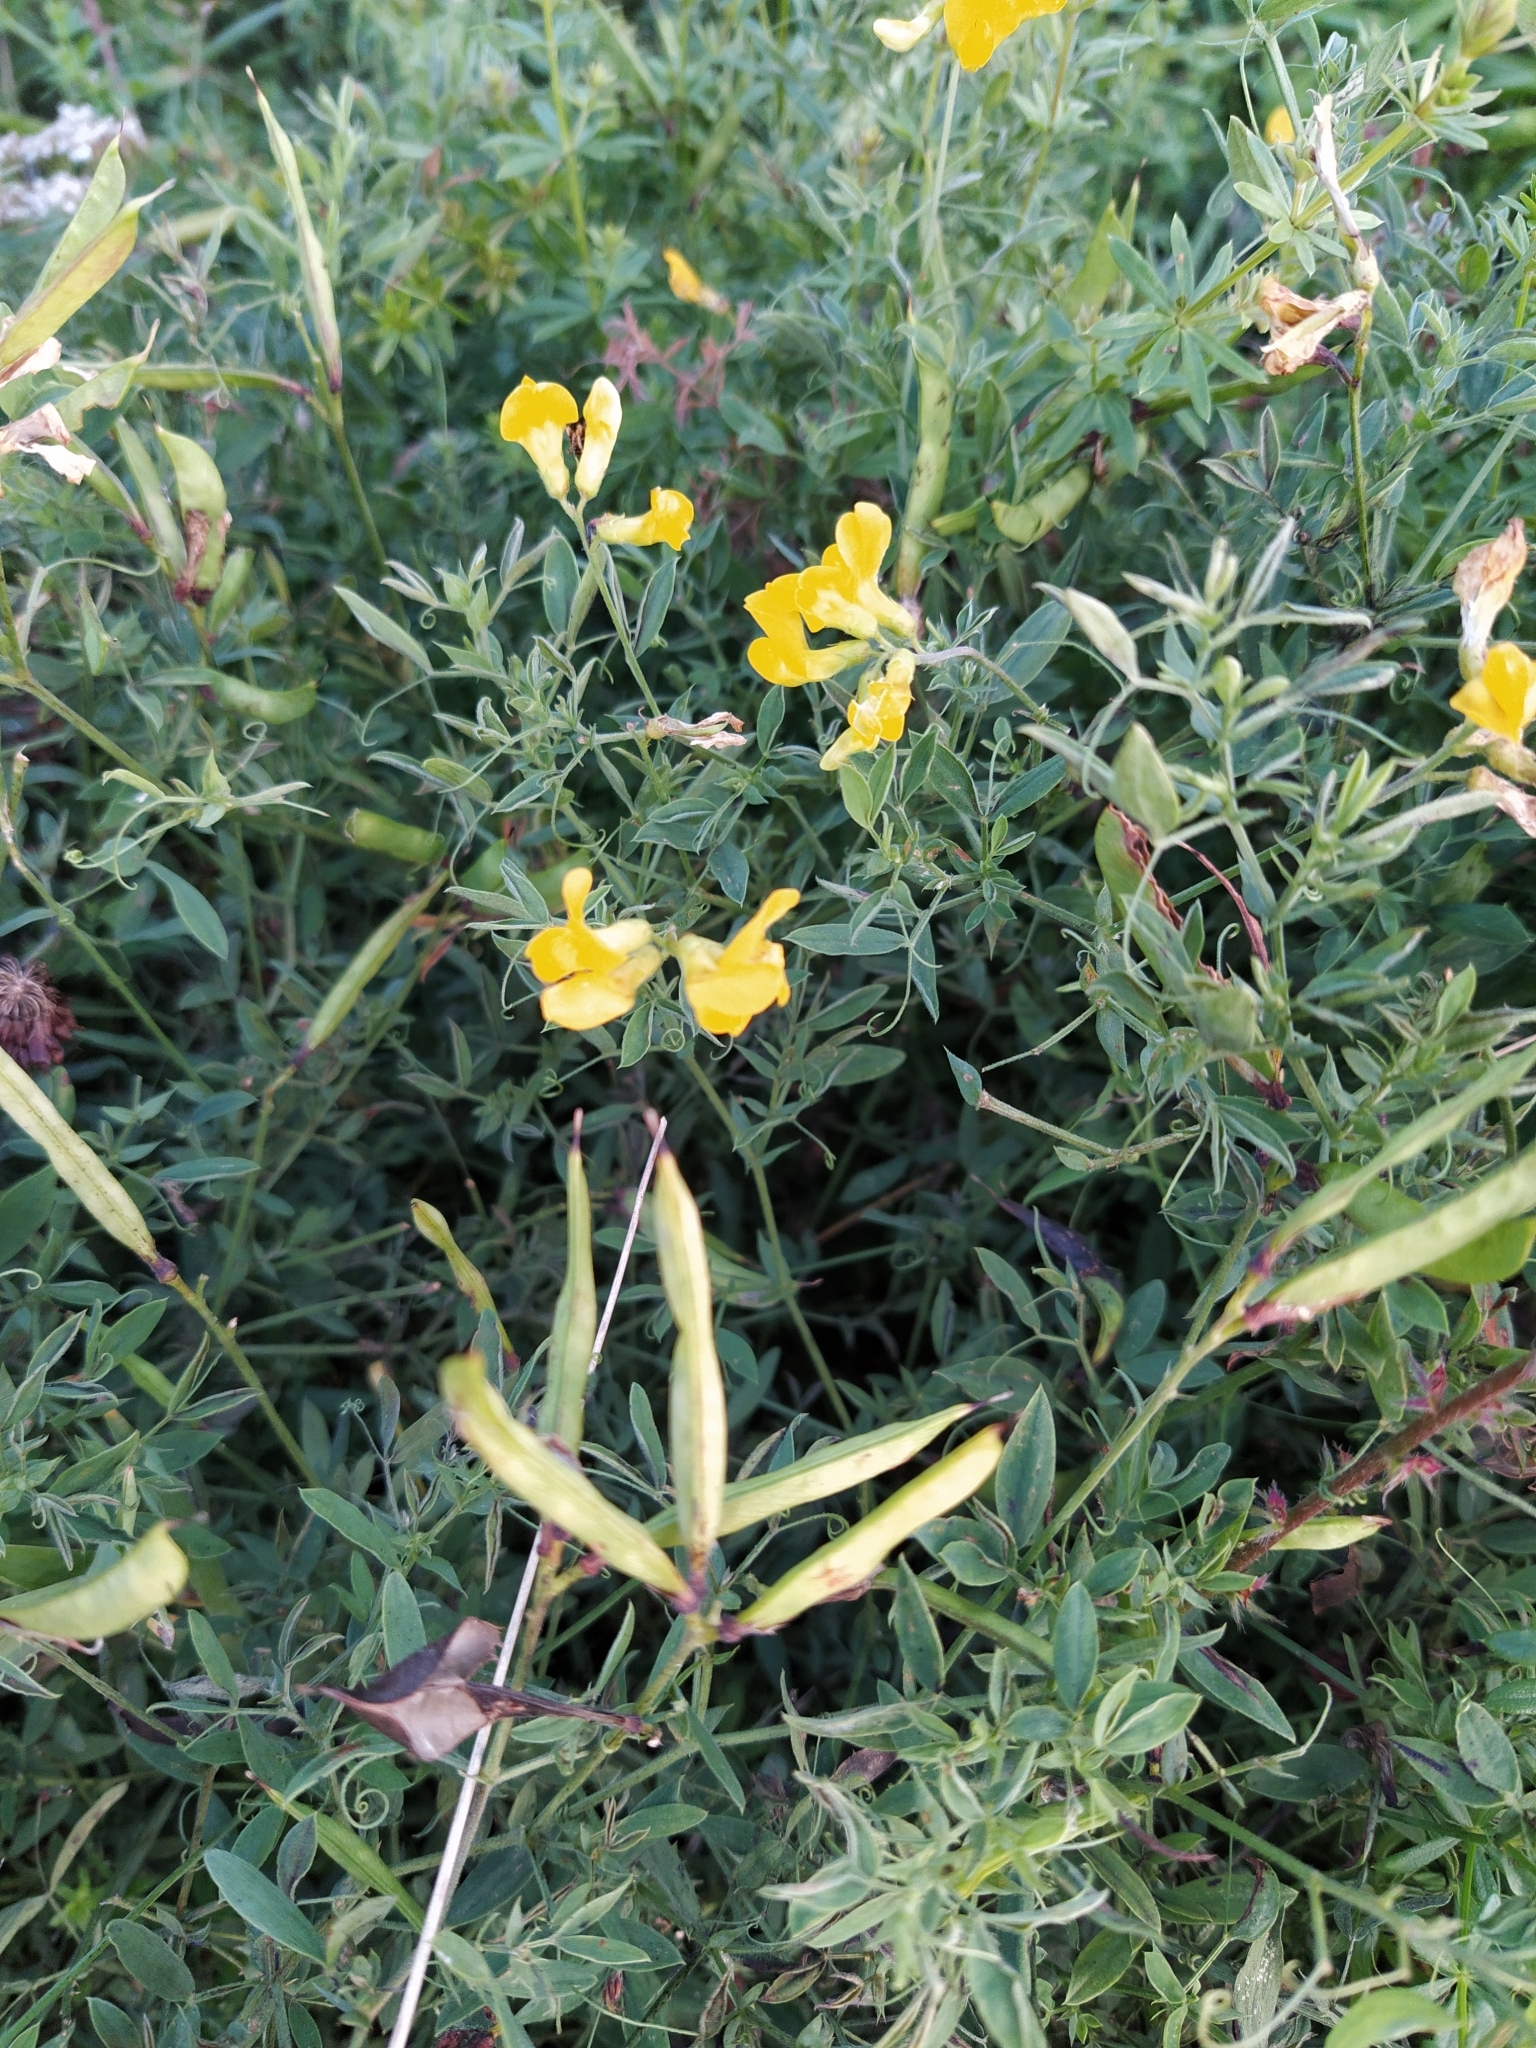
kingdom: Plantae
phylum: Tracheophyta
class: Magnoliopsida
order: Fabales
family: Fabaceae
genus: Lathyrus
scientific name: Lathyrus pratensis
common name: Meadow vetchling
